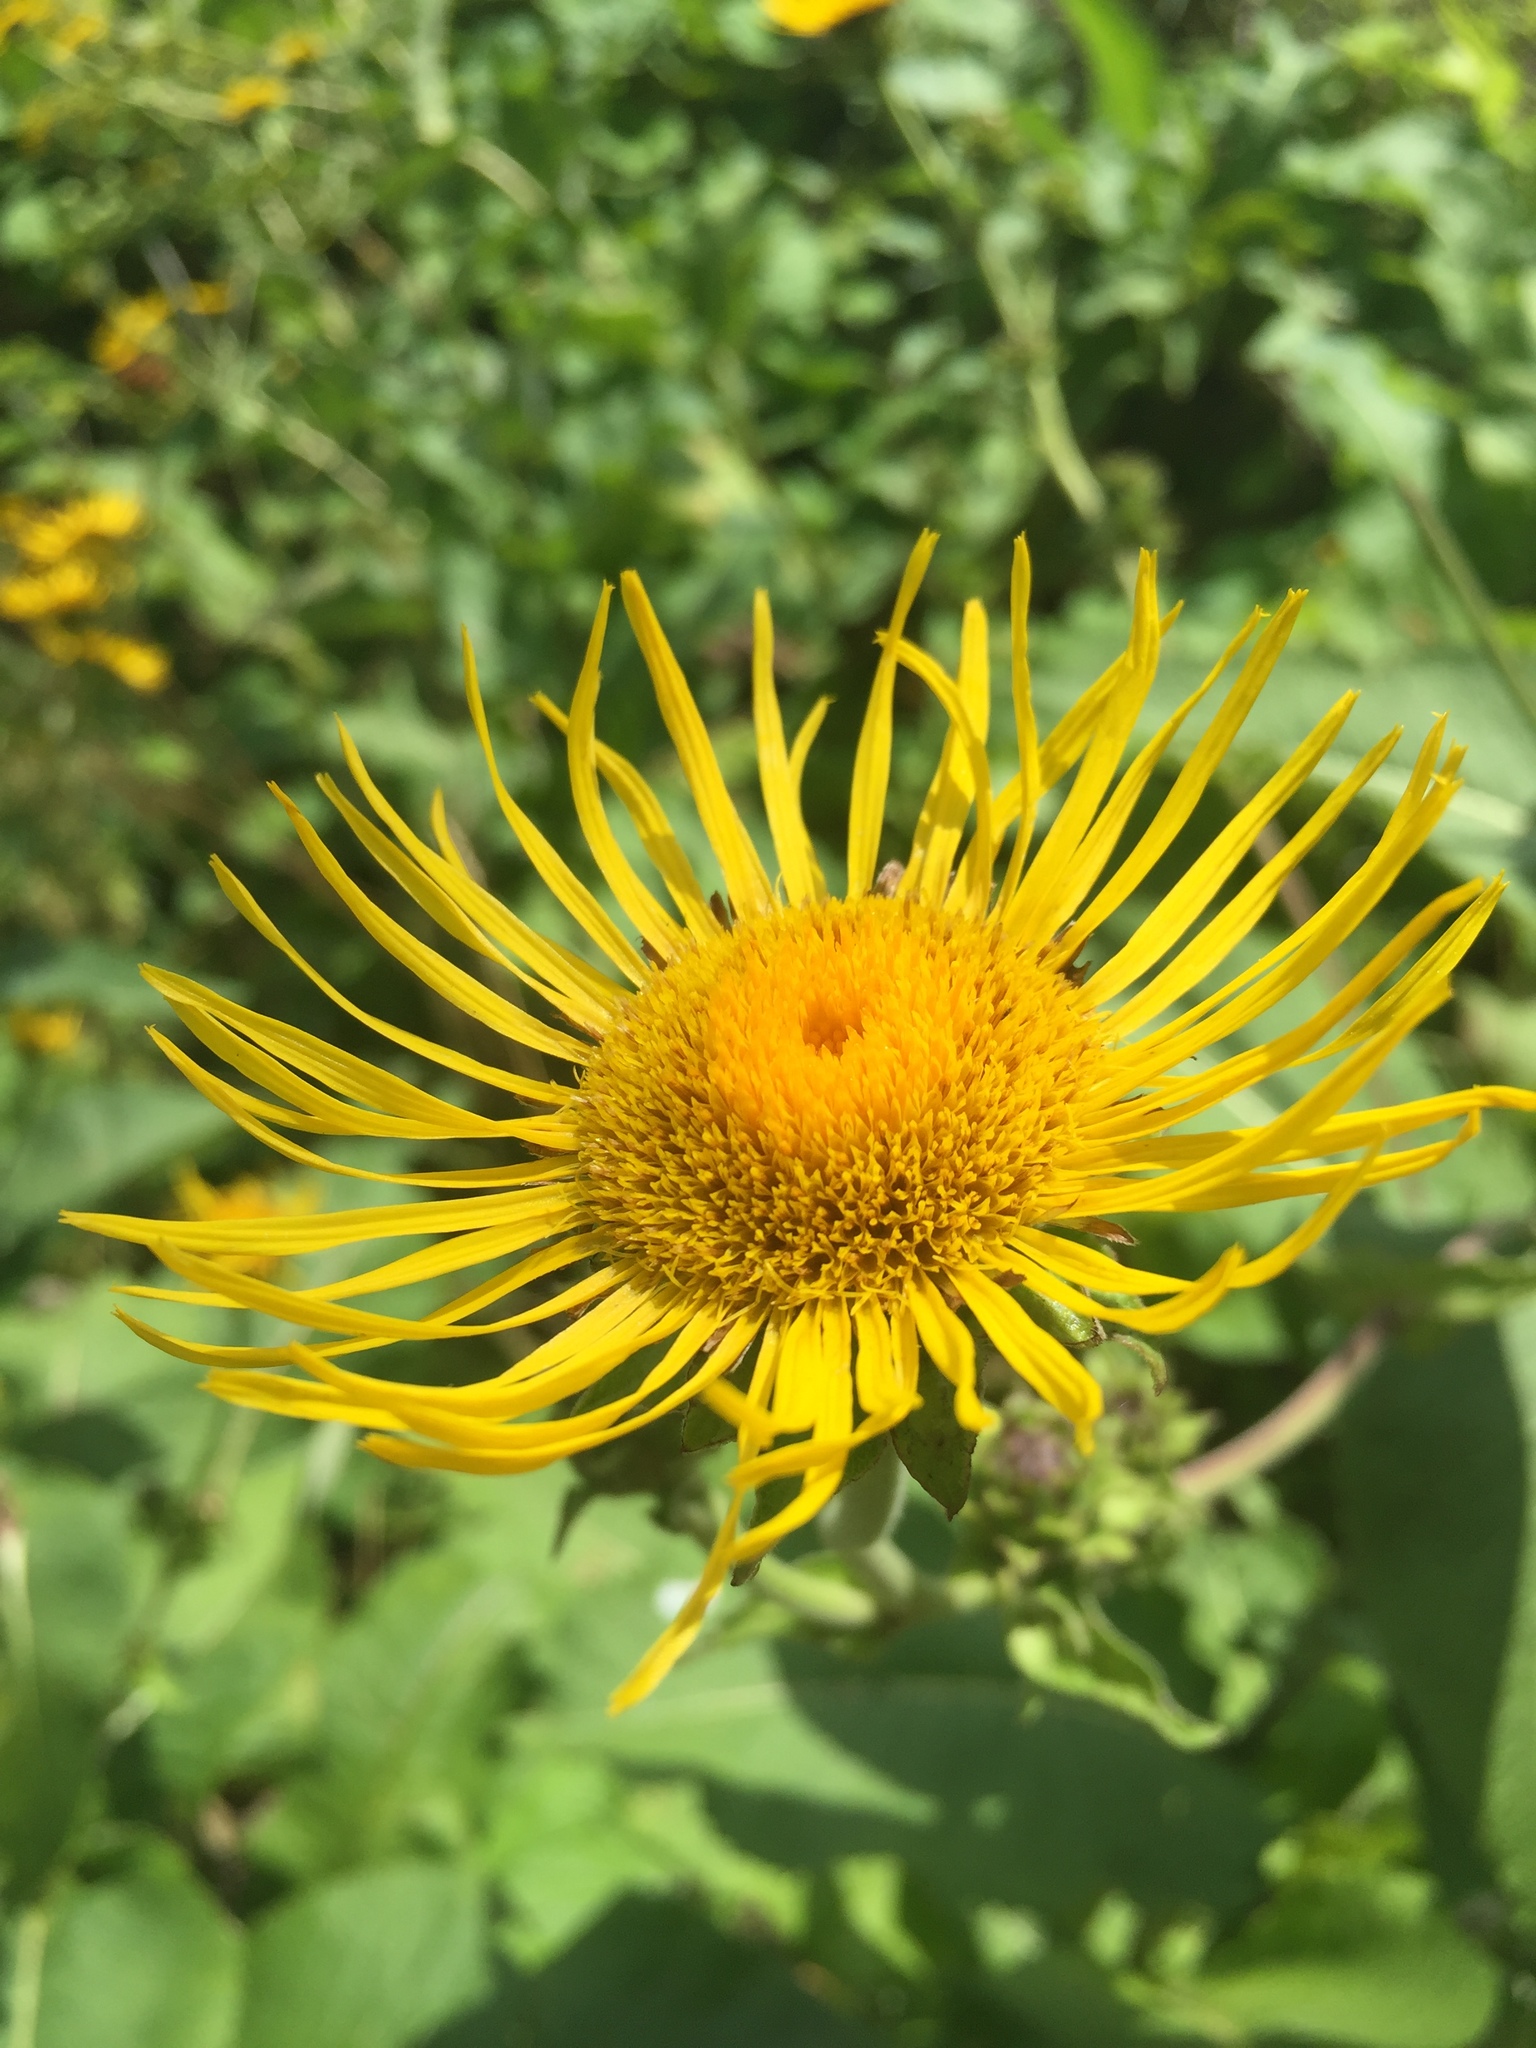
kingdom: Plantae
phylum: Tracheophyta
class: Magnoliopsida
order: Asterales
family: Asteraceae
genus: Inula
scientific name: Inula helenium
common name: Elecampane
